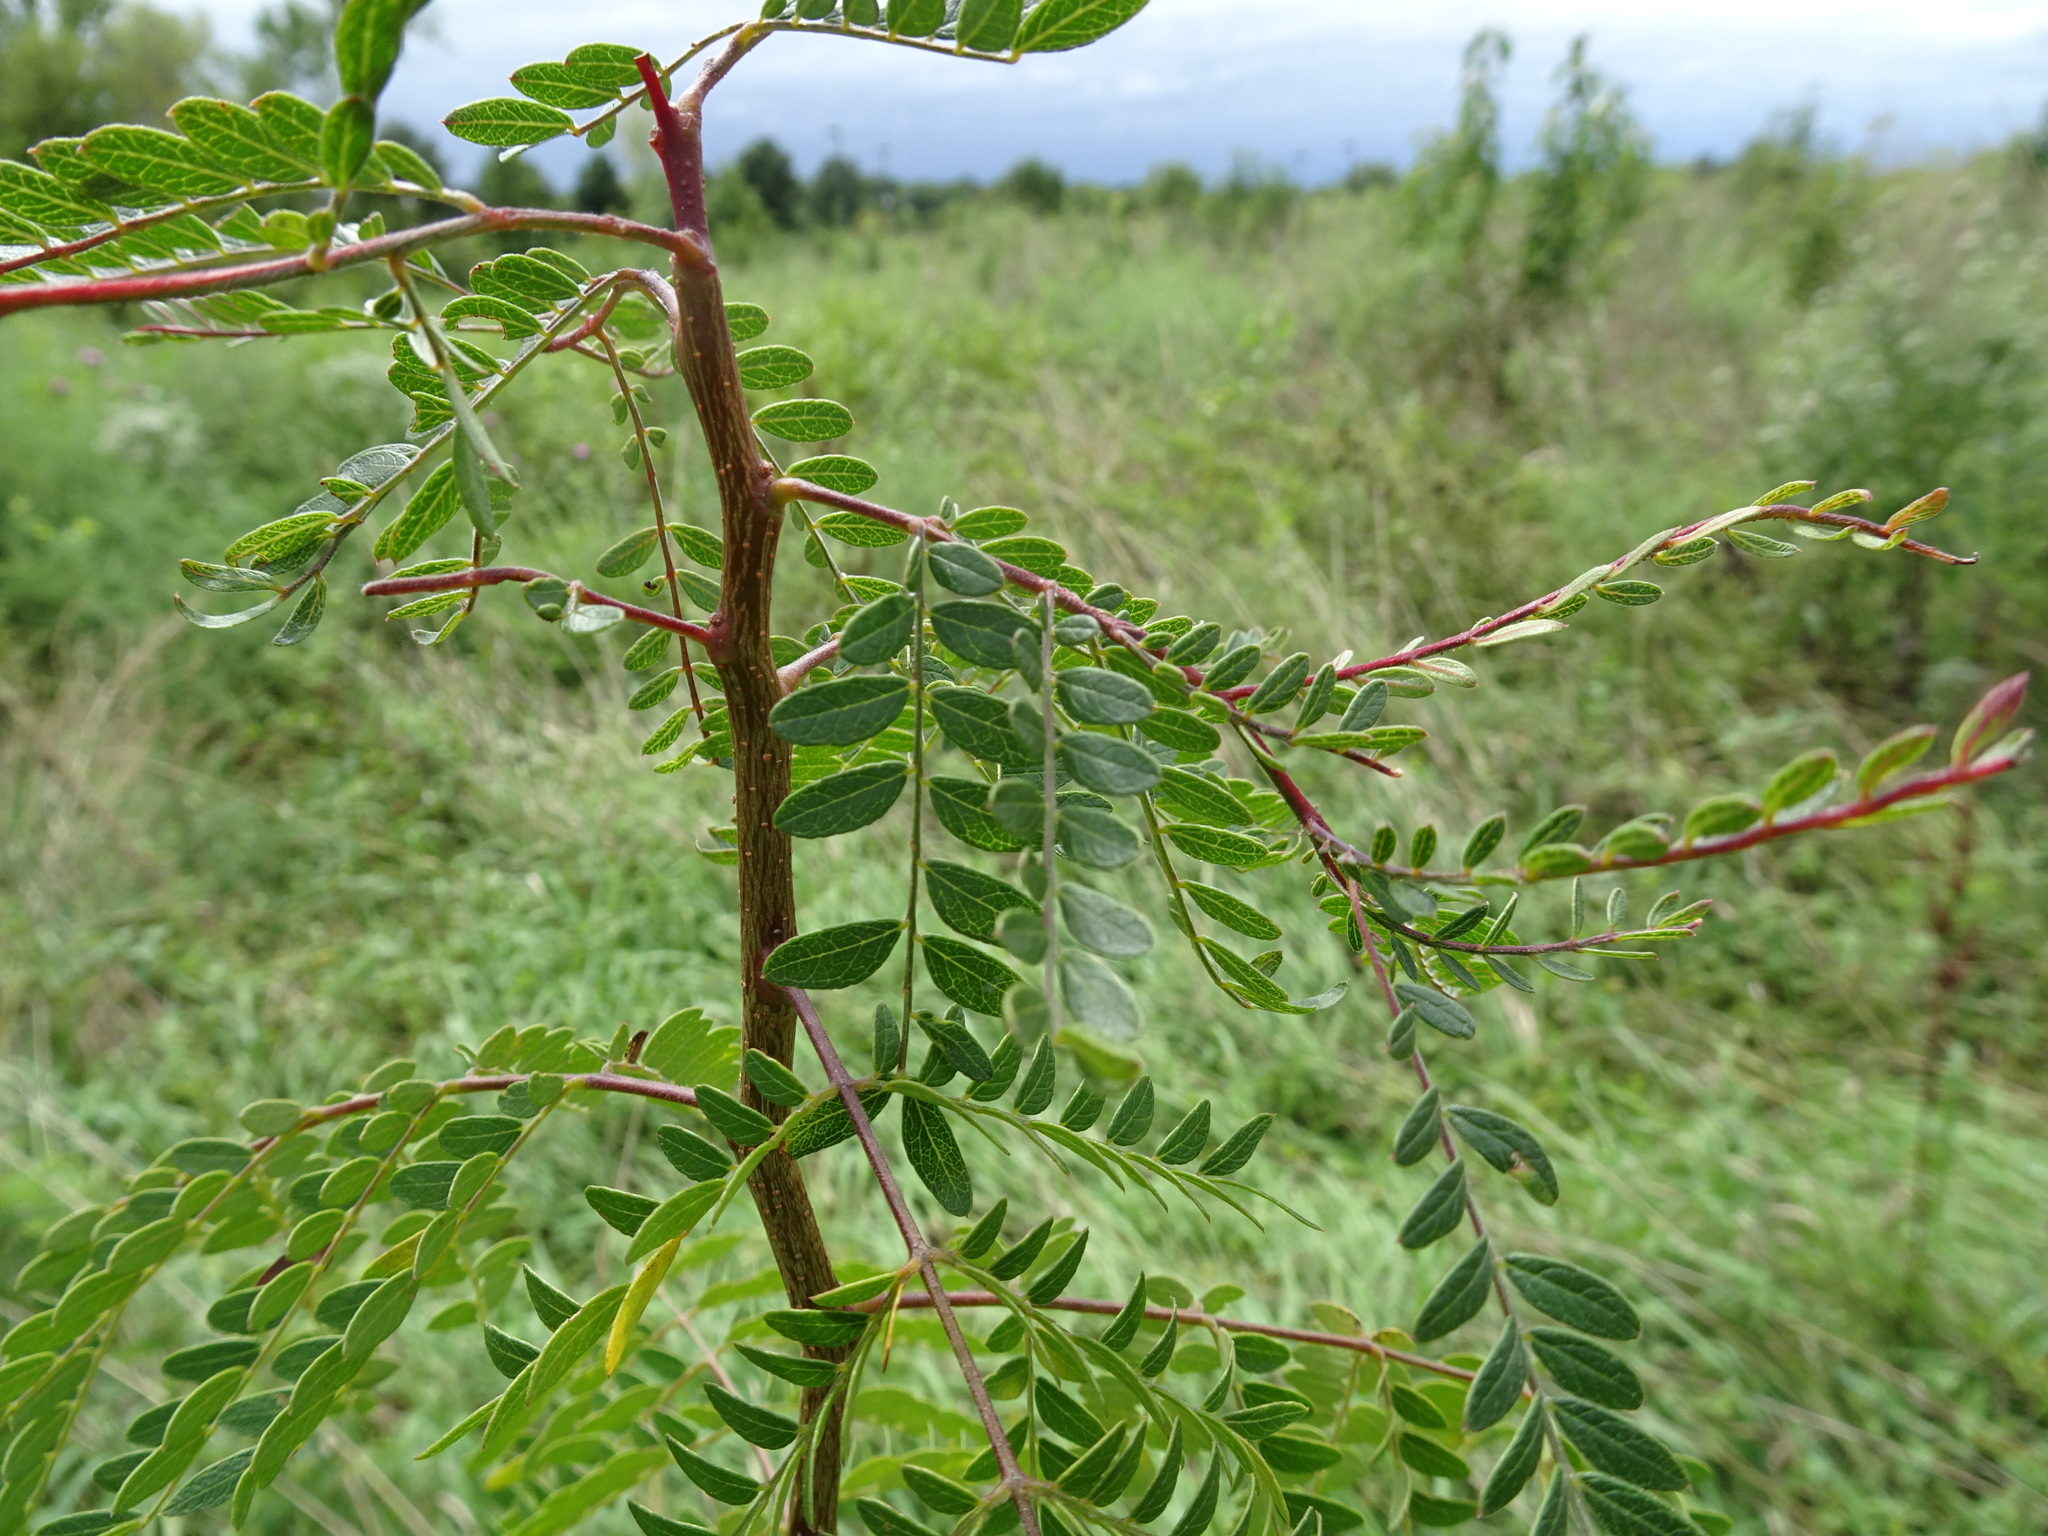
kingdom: Plantae
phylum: Tracheophyta
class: Magnoliopsida
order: Fabales
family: Fabaceae
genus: Gleditsia
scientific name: Gleditsia triacanthos
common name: Common honeylocust
